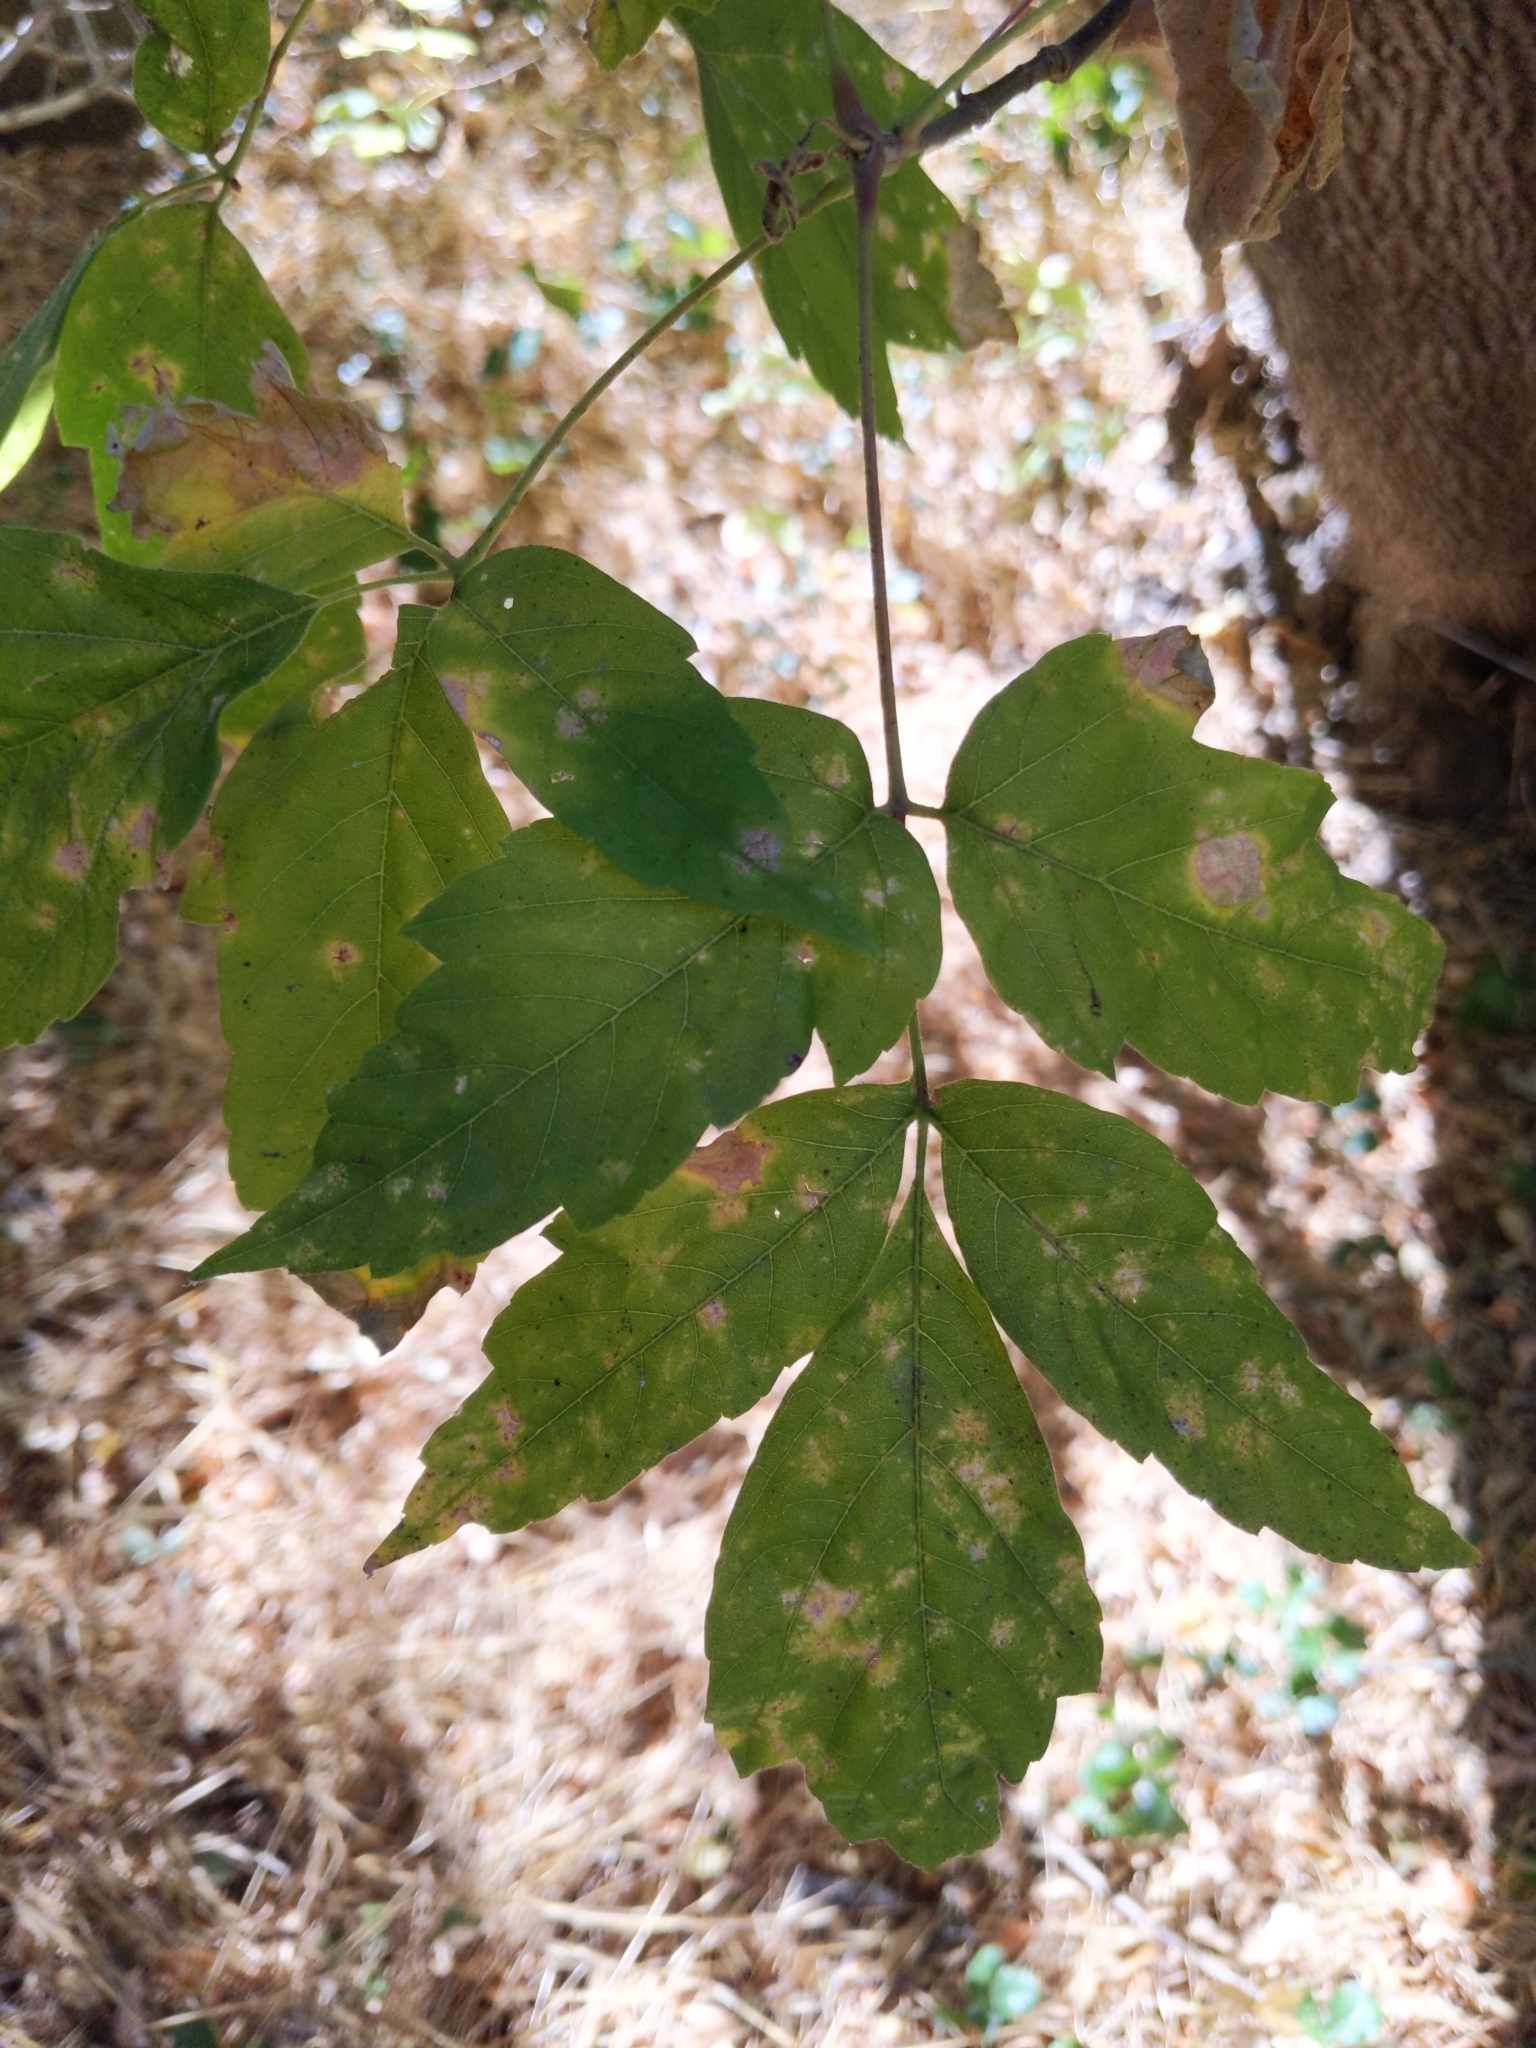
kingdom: Plantae
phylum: Tracheophyta
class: Magnoliopsida
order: Sapindales
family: Sapindaceae
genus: Acer
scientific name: Acer negundo
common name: Ashleaf maple
